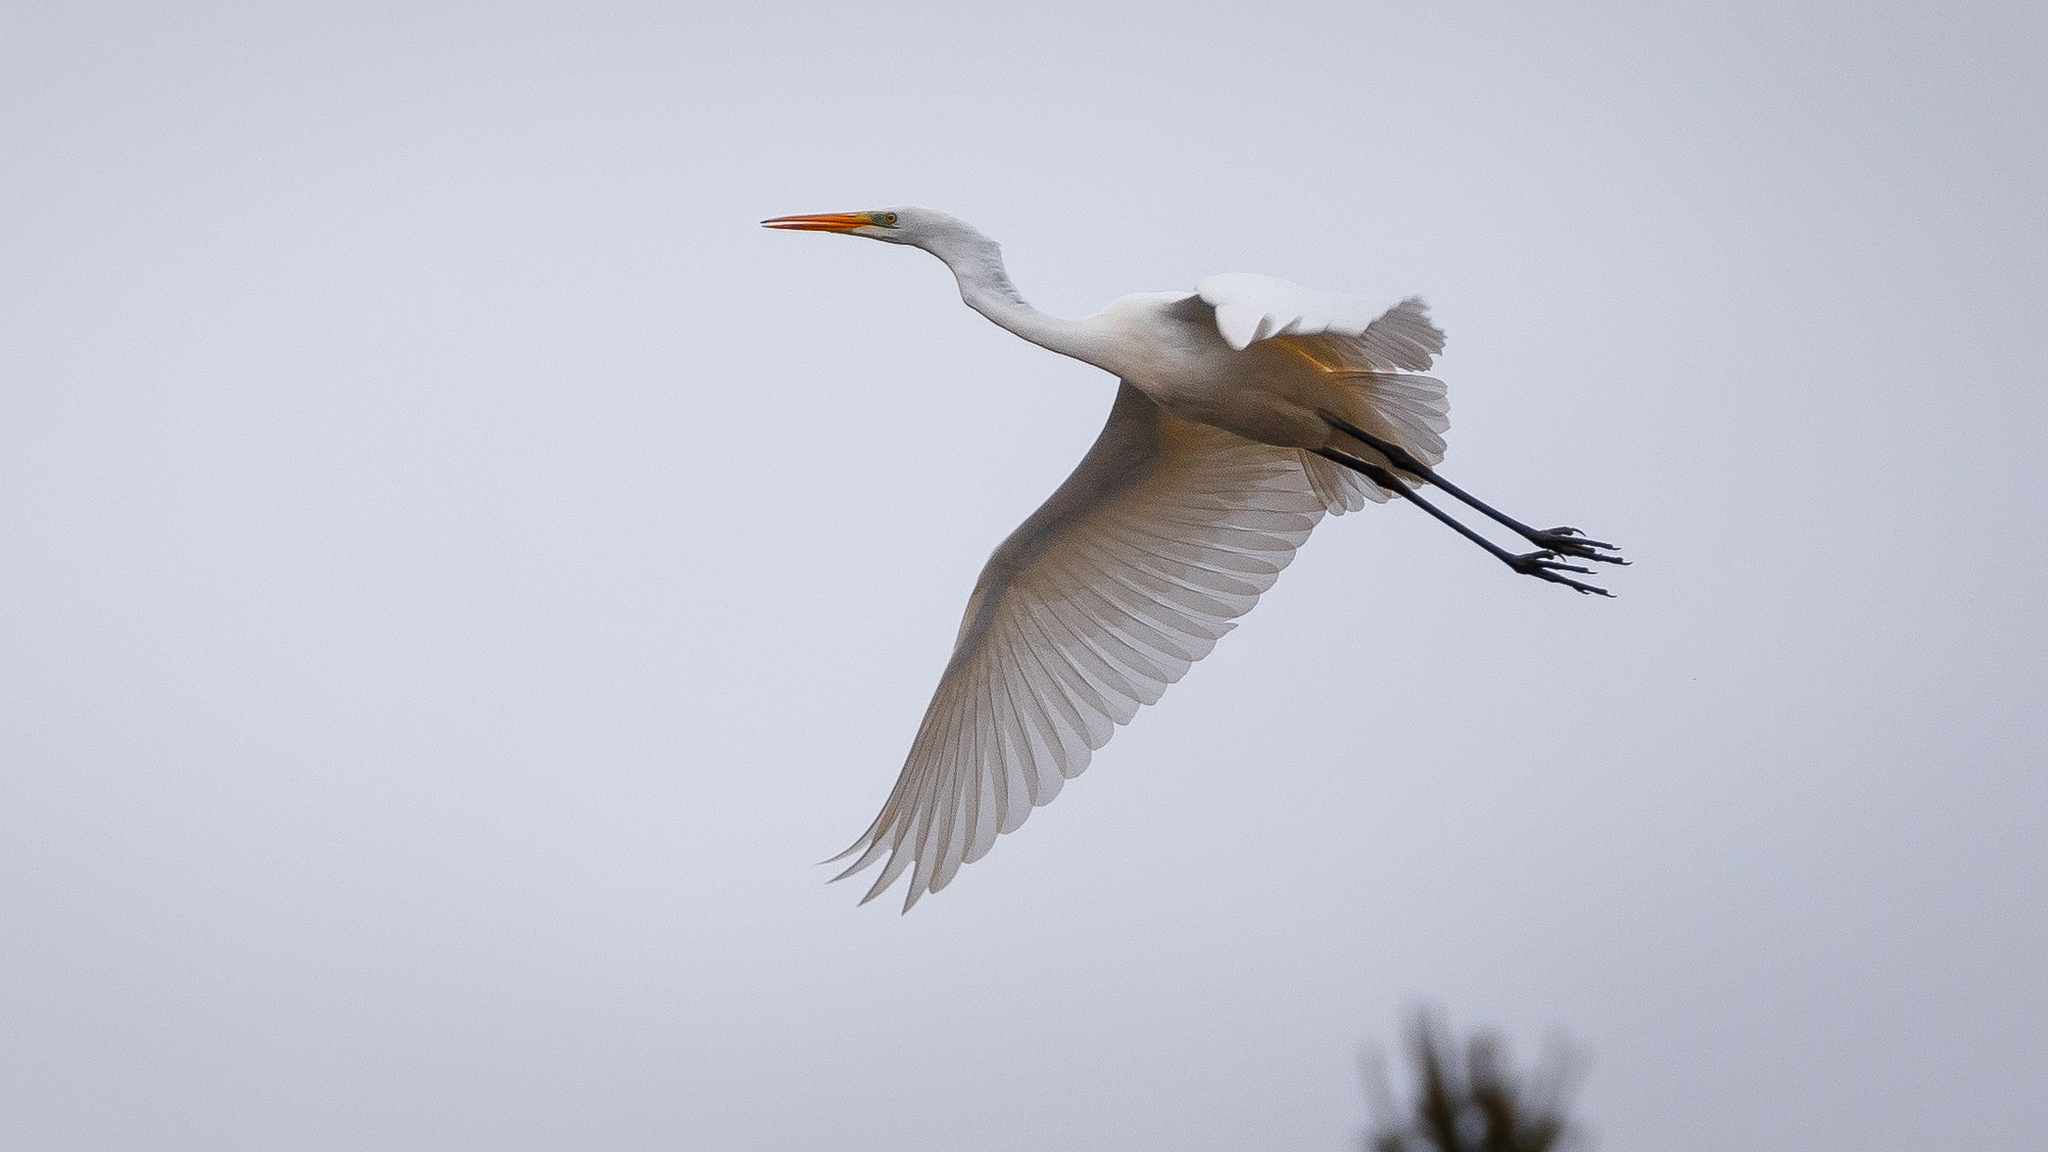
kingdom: Animalia
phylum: Chordata
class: Aves
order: Pelecaniformes
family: Ardeidae
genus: Ardea
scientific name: Ardea alba
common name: Great egret
